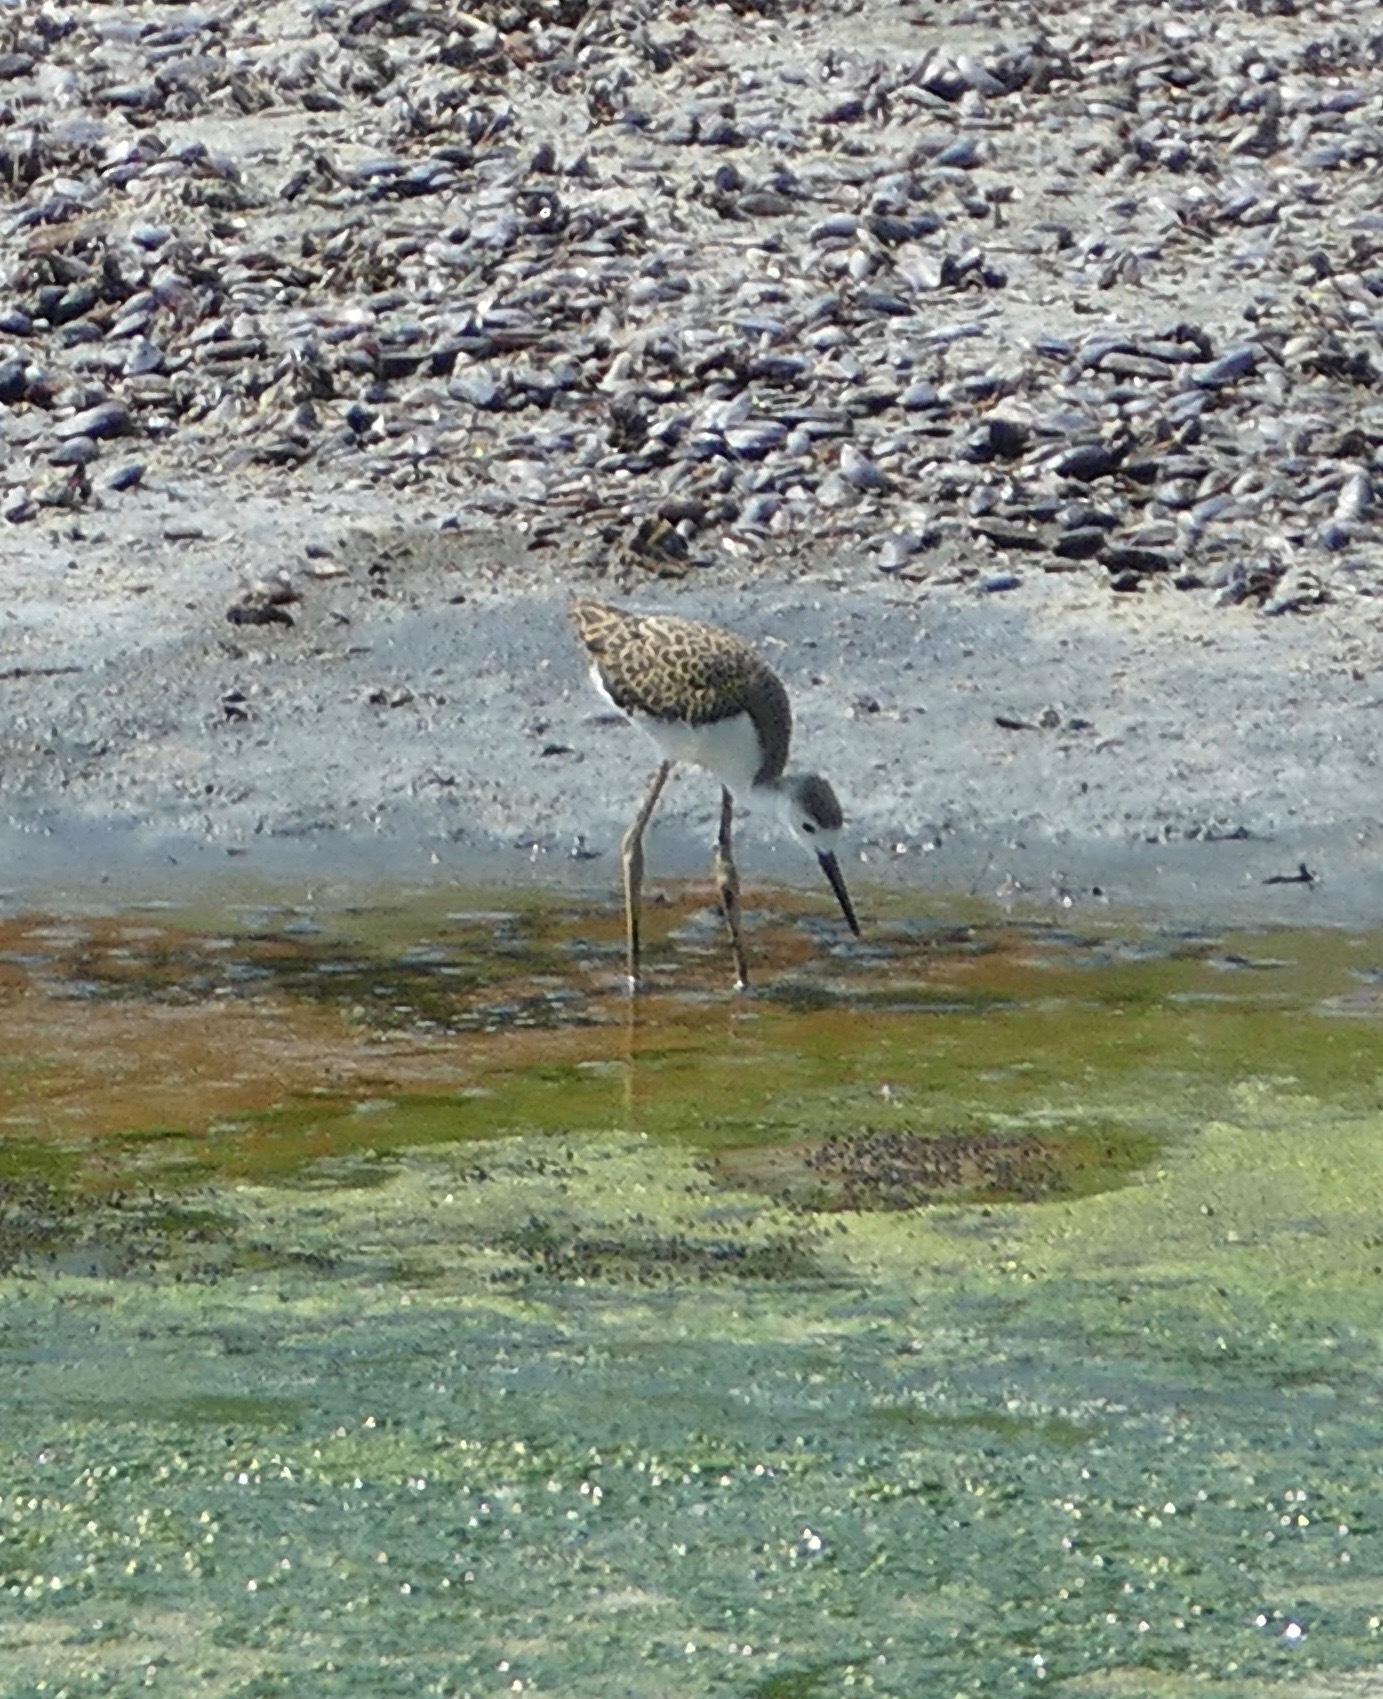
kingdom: Animalia
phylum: Chordata
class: Aves
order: Charadriiformes
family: Recurvirostridae
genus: Himantopus
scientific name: Himantopus himantopus
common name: Black-winged stilt
